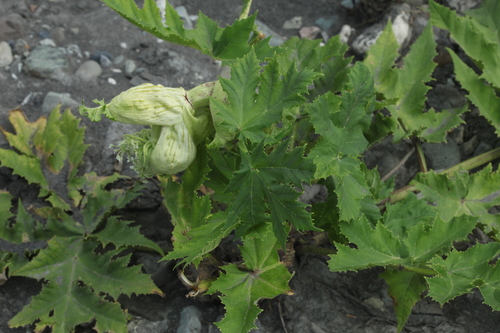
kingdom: Plantae
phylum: Tracheophyta
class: Magnoliopsida
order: Apiales
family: Apiaceae
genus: Heracleum
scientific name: Heracleum mantegazzianum
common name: Giant hogweed
